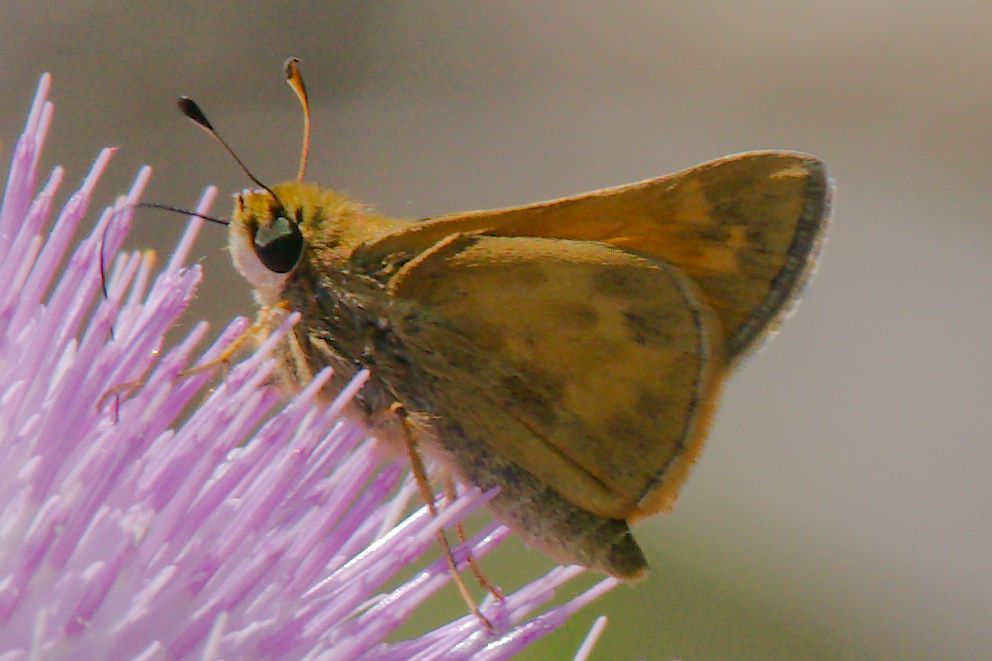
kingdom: Animalia
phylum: Arthropoda
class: Insecta
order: Lepidoptera
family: Hesperiidae
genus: Atalopedes
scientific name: Atalopedes
